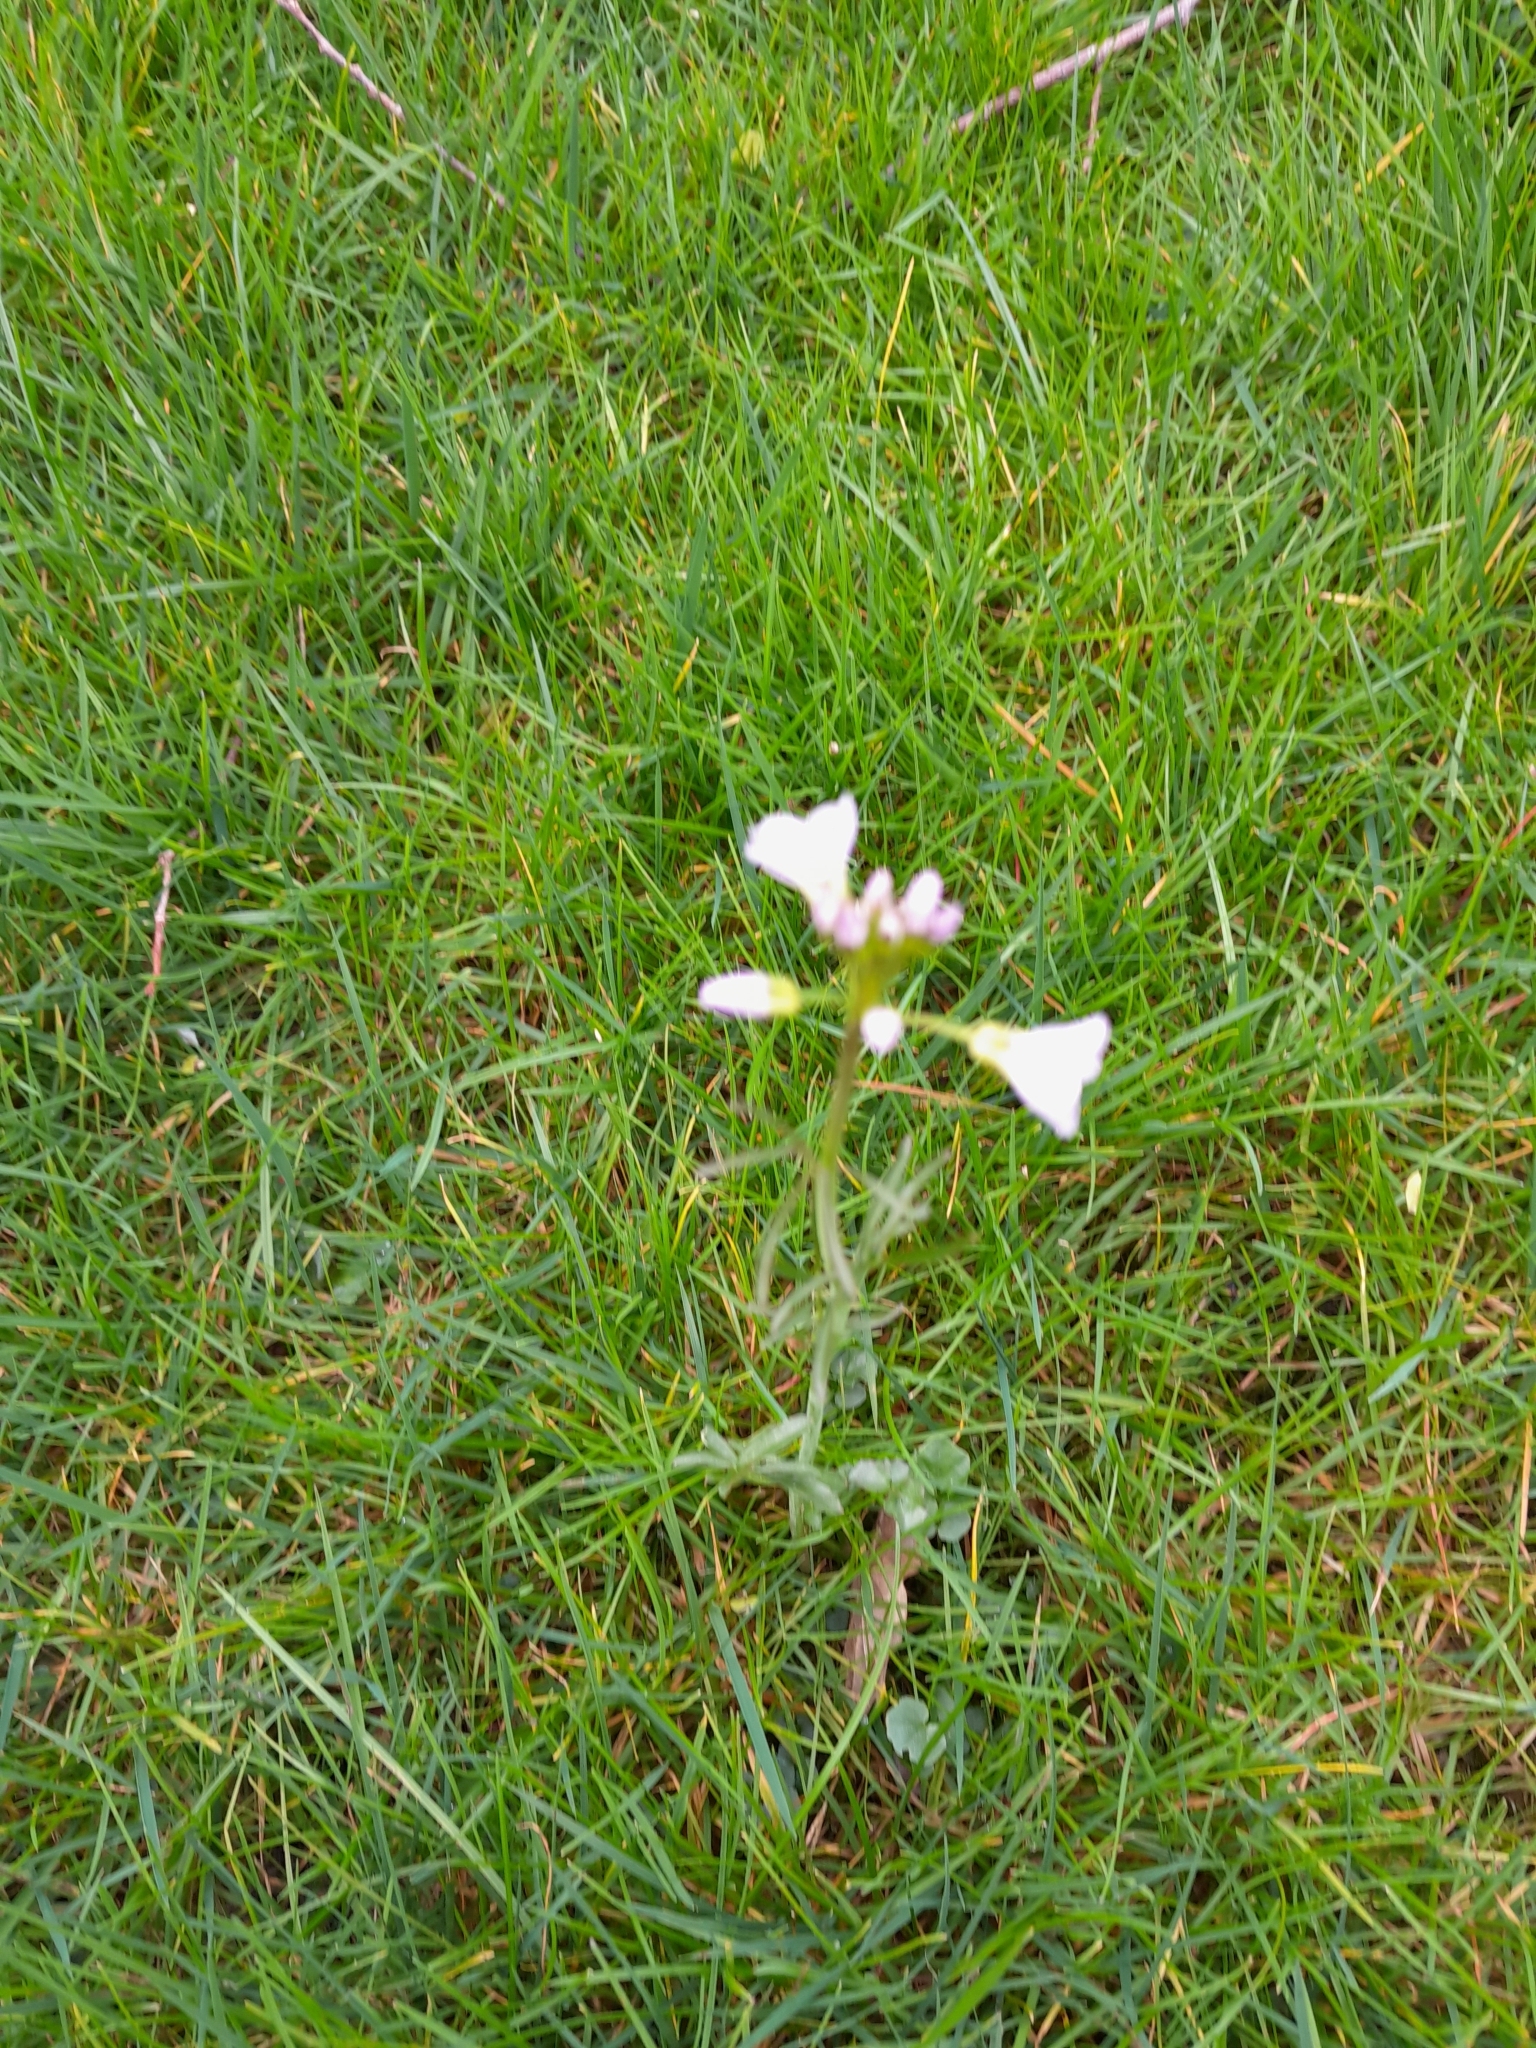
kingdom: Plantae
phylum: Tracheophyta
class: Magnoliopsida
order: Brassicales
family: Brassicaceae
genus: Cardamine
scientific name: Cardamine pratensis
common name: Cuckoo flower
